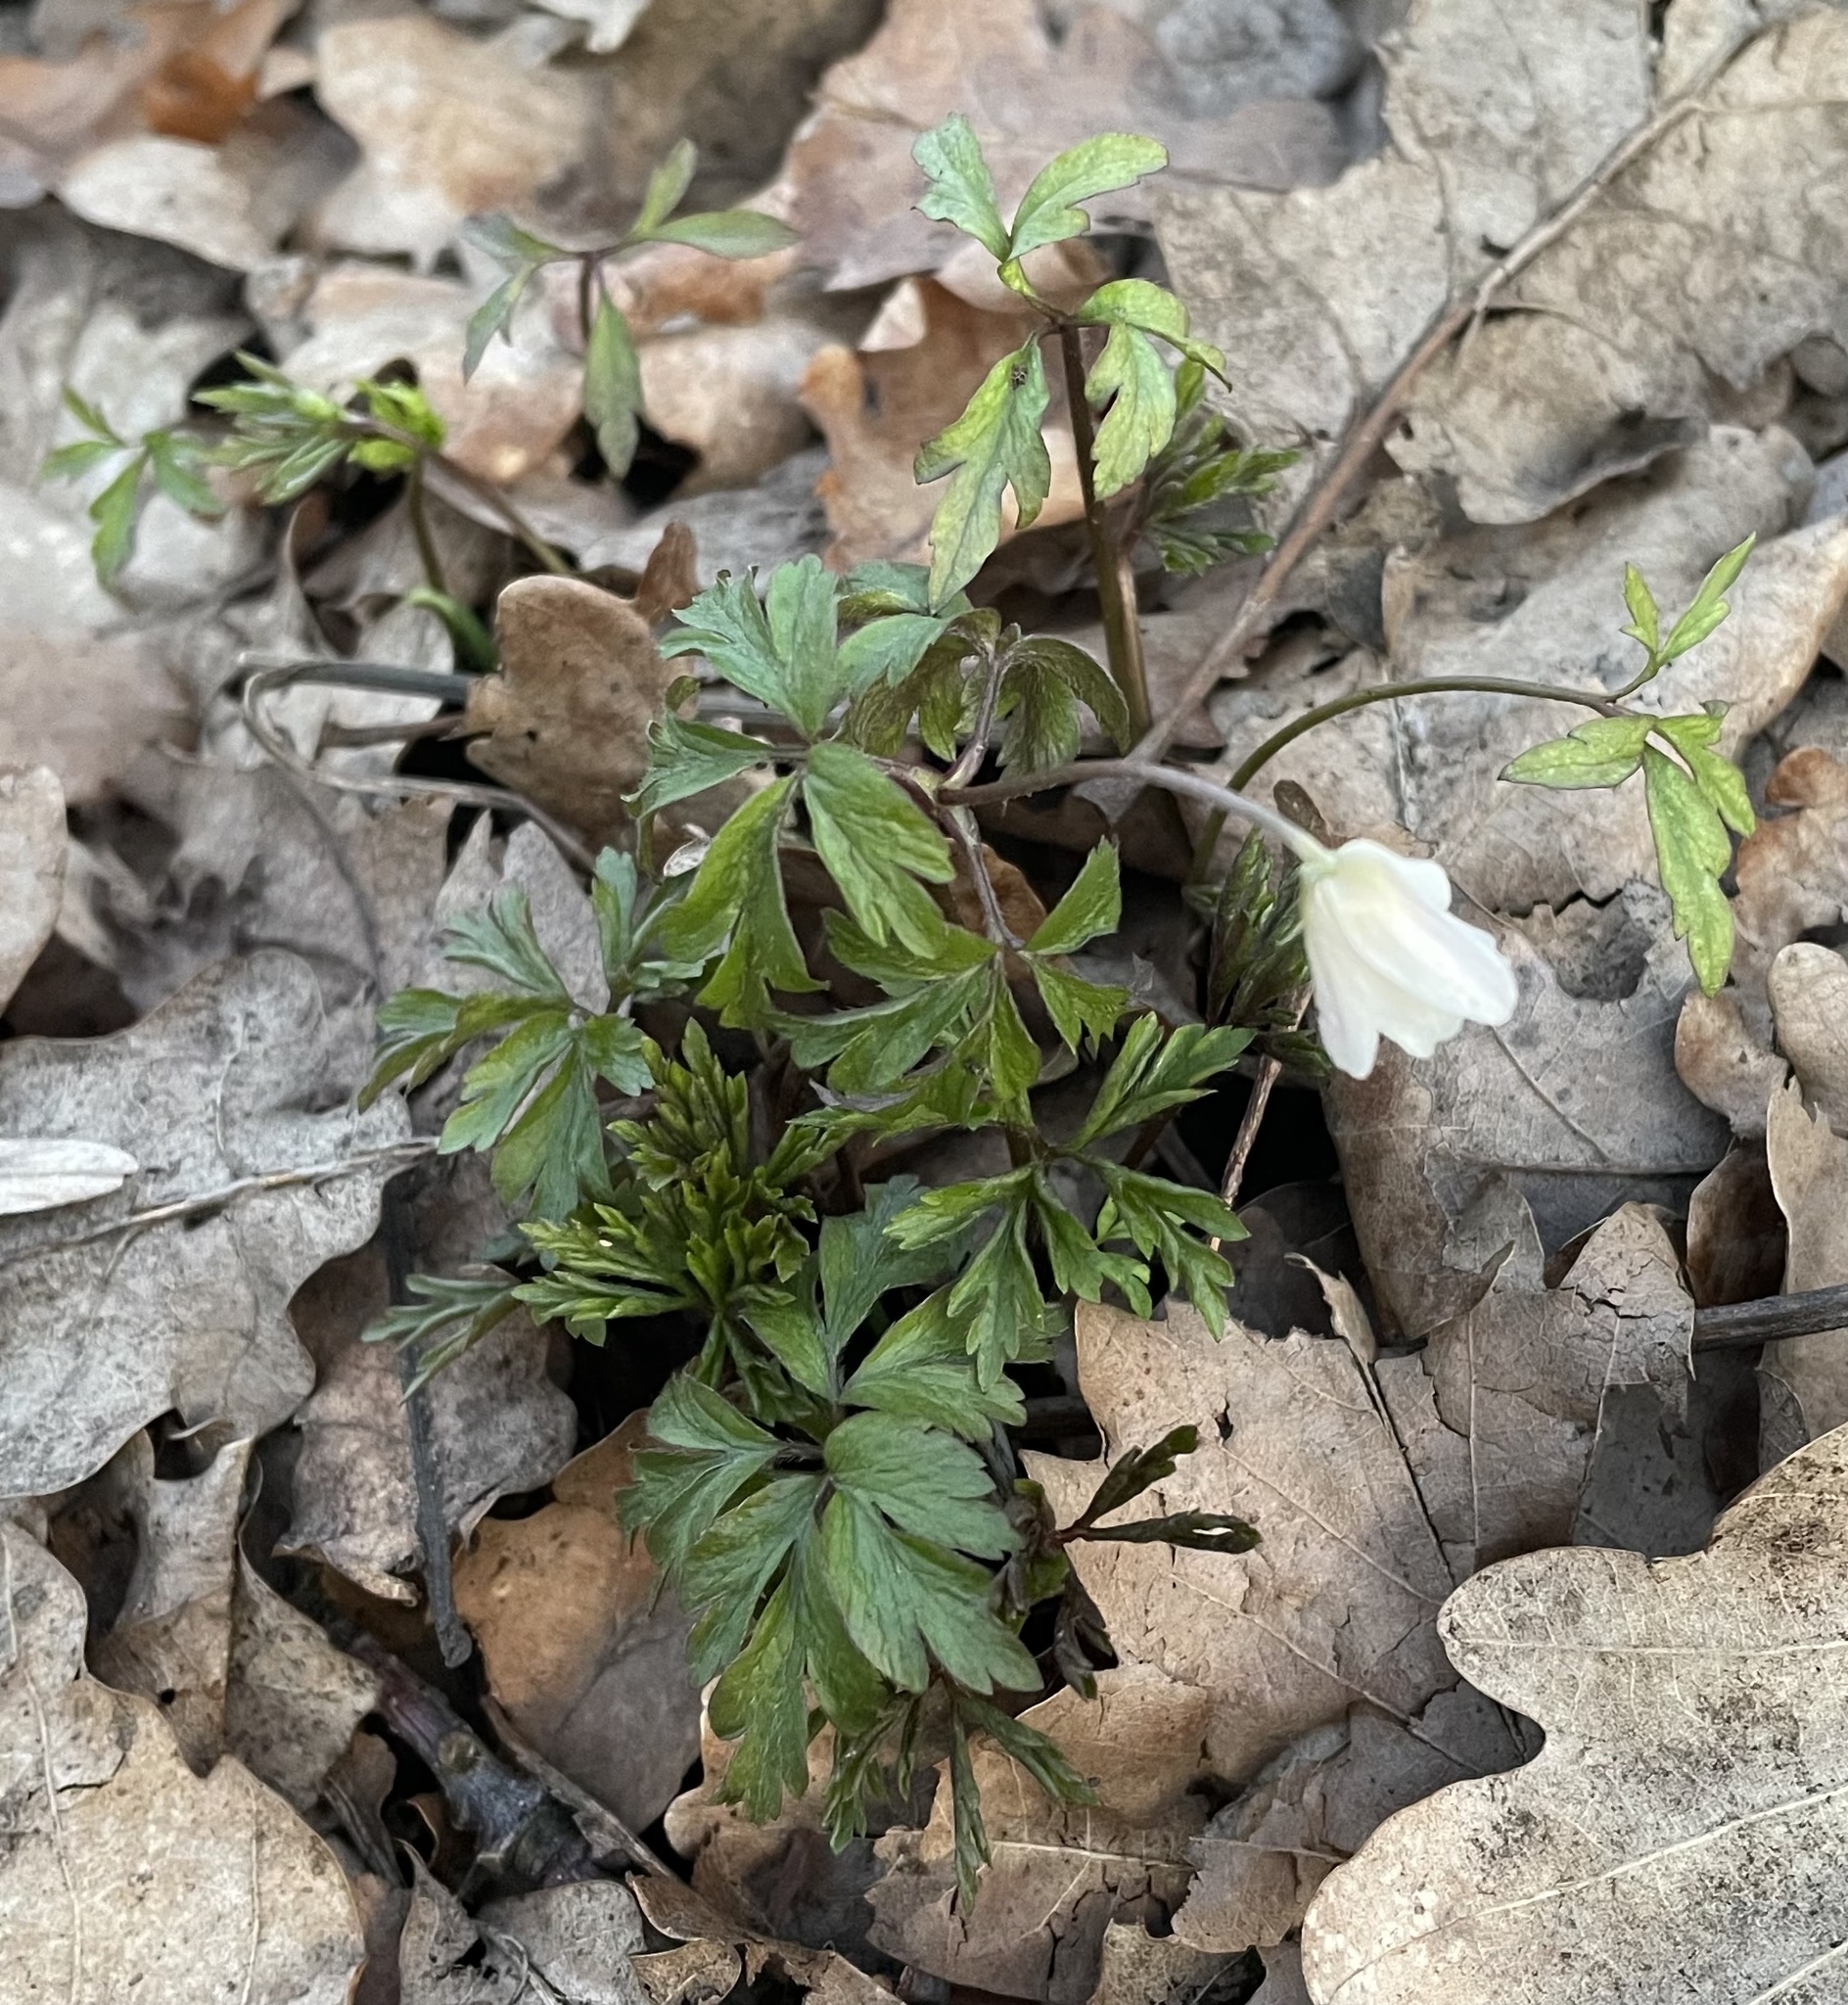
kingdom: Plantae
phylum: Tracheophyta
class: Magnoliopsida
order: Ranunculales
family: Ranunculaceae
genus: Anemone
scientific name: Anemone nemorosa
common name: Wood anemone
